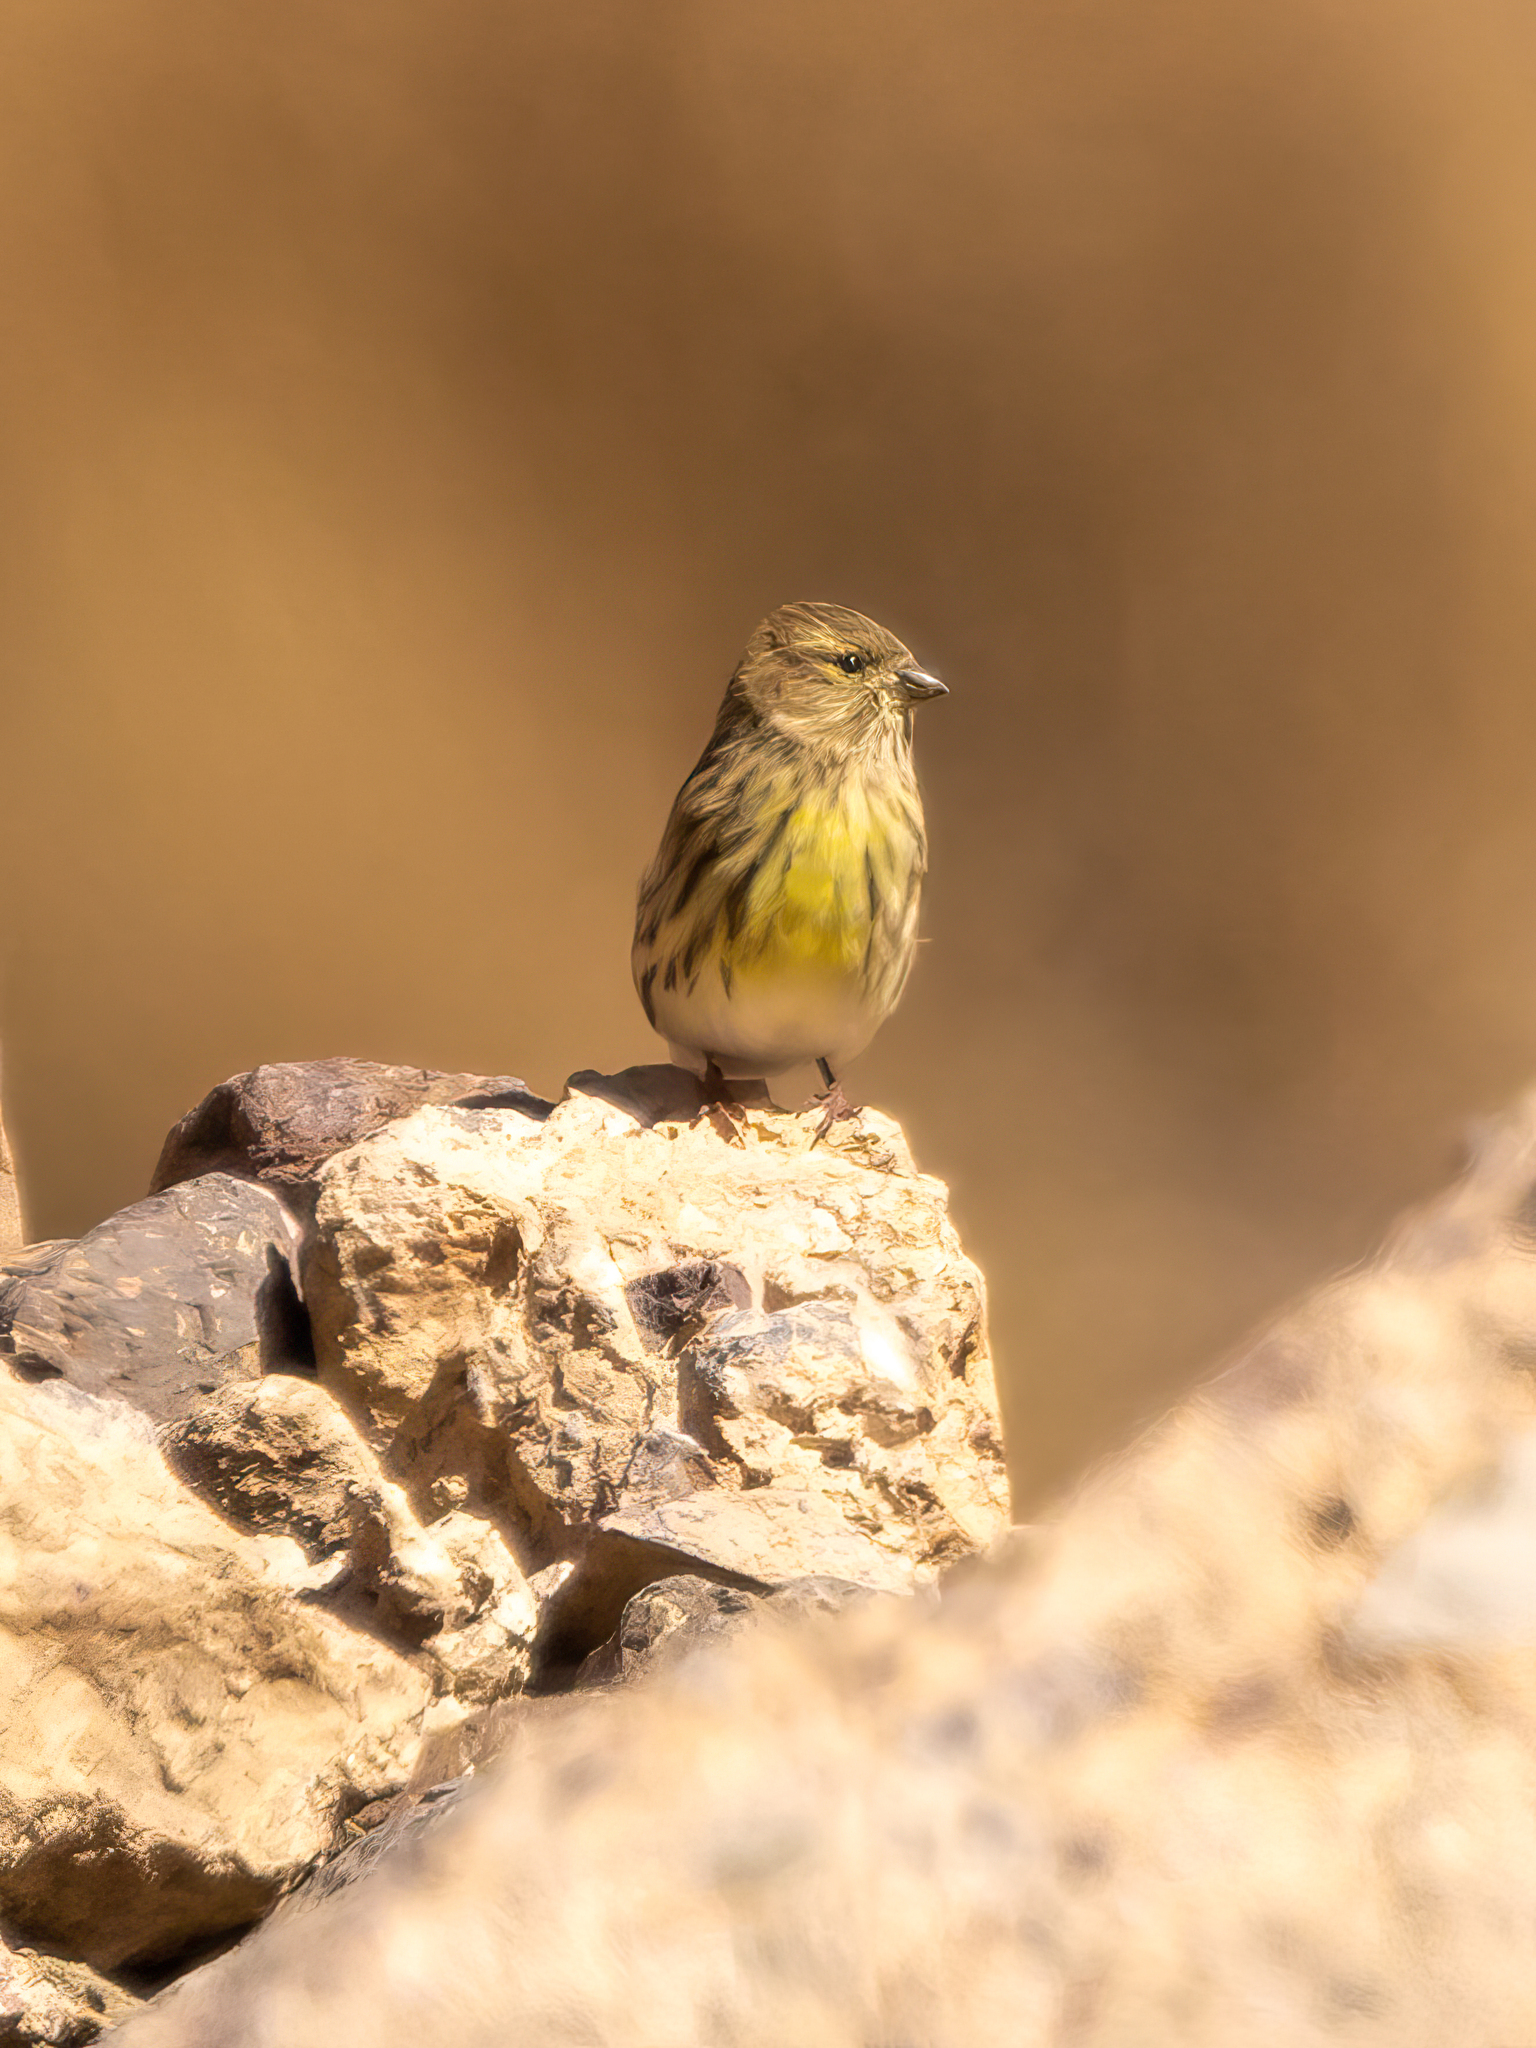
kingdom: Animalia
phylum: Chordata
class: Aves
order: Passeriformes
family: Fringillidae
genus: Serinus
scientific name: Serinus serinus
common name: European serin
